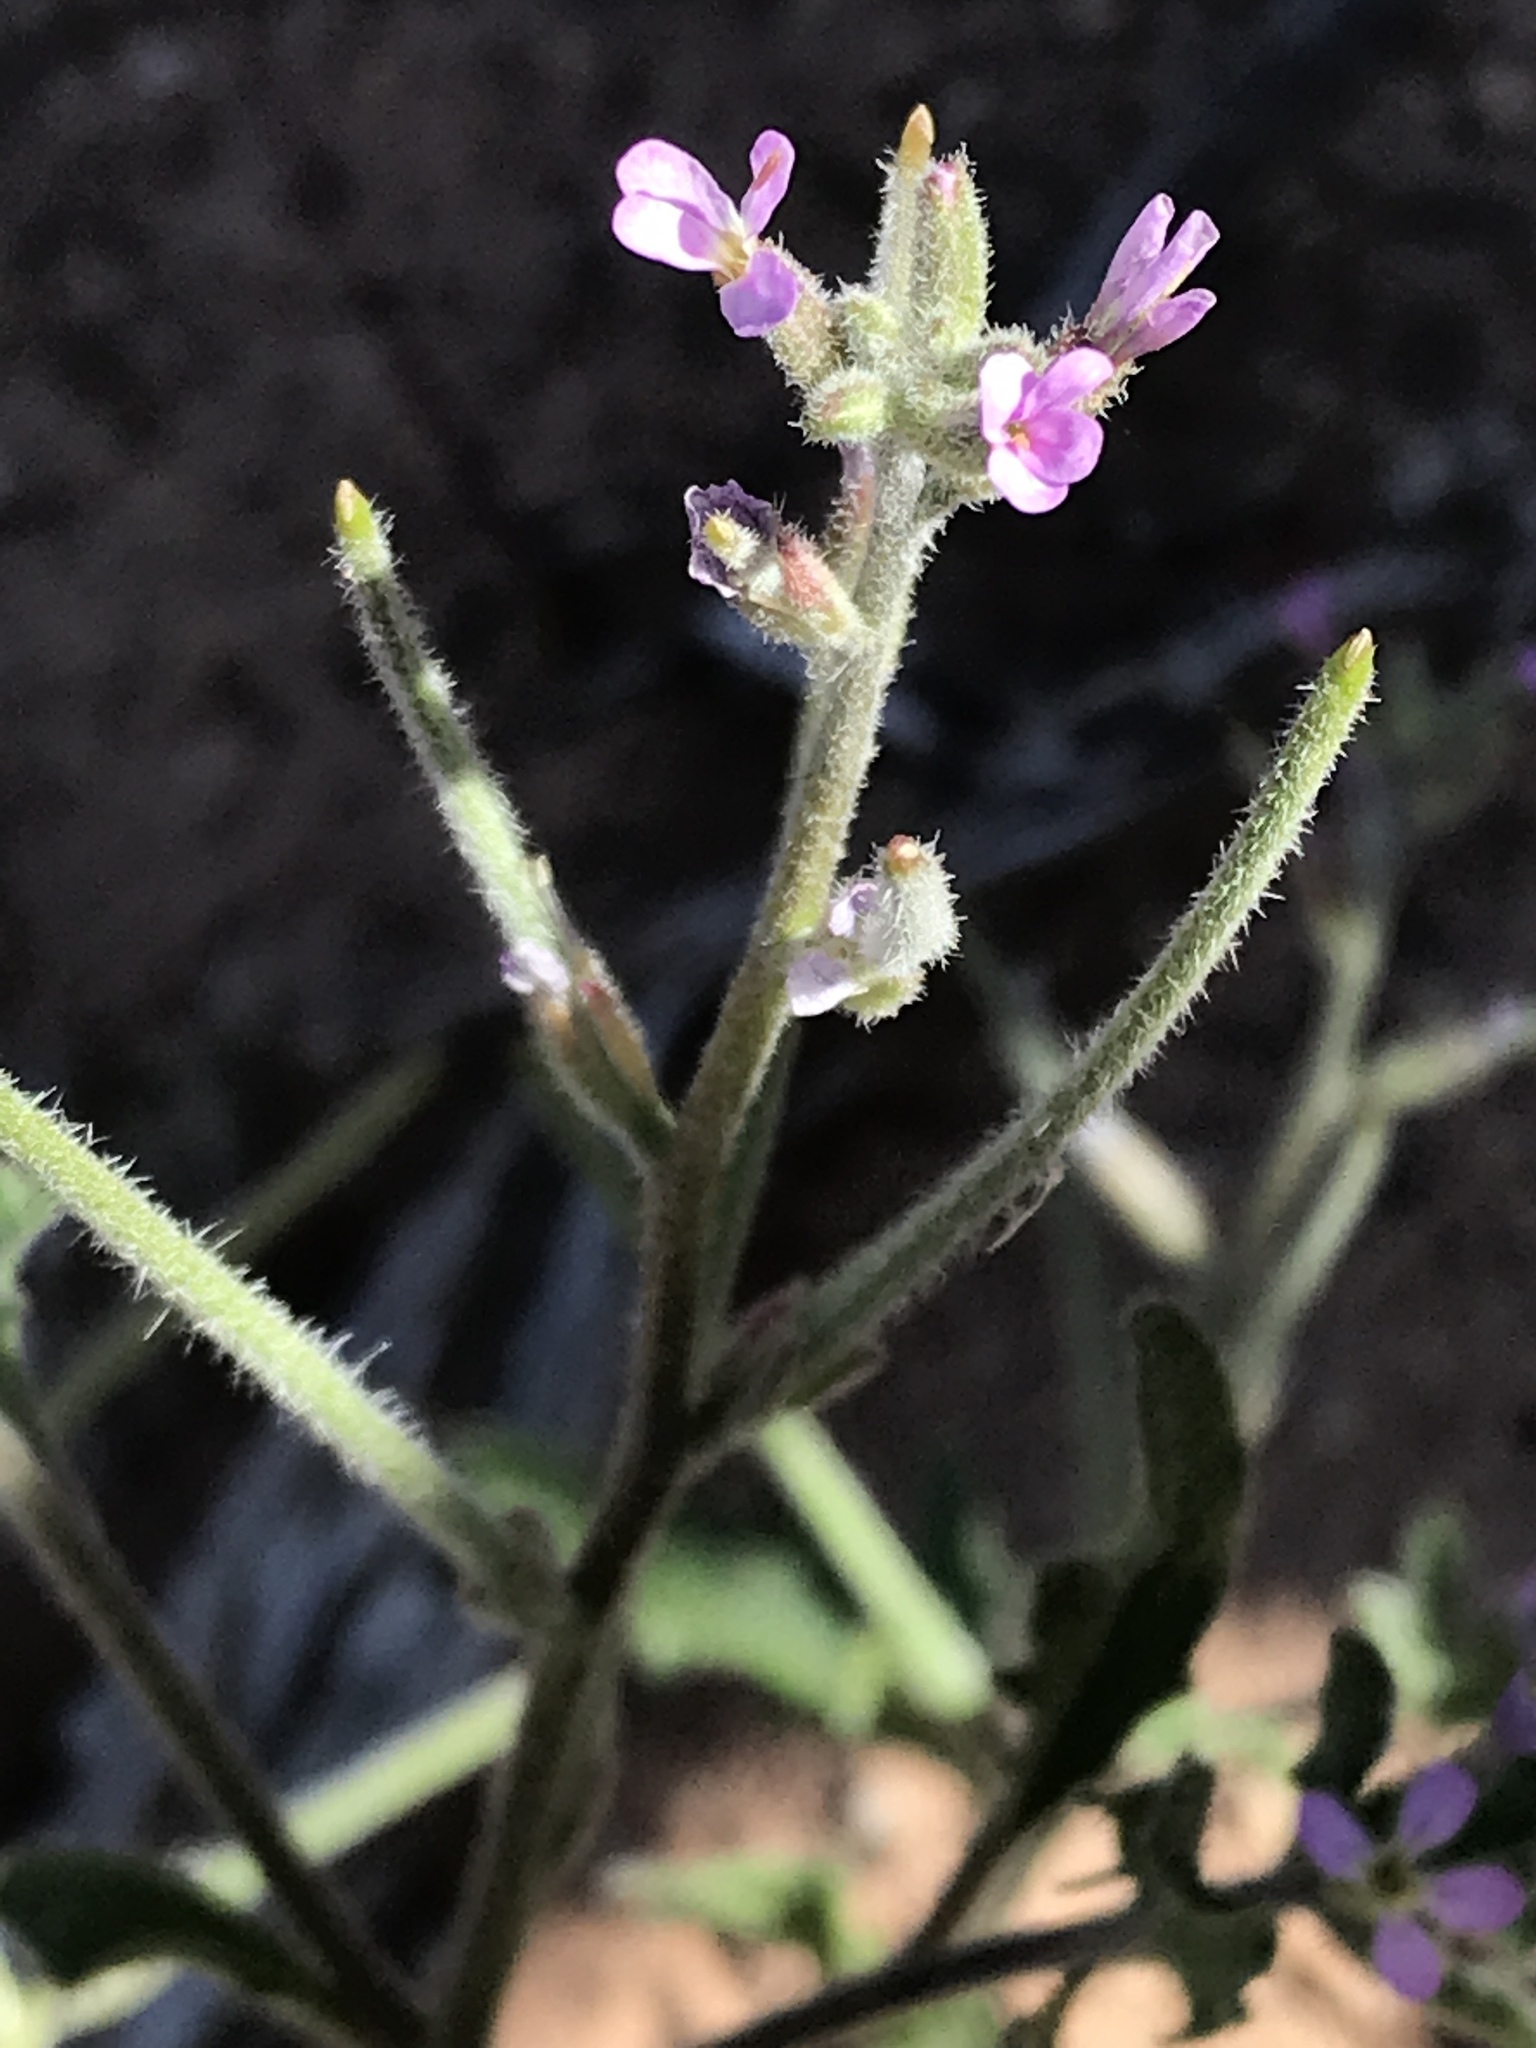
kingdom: Plantae
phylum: Tracheophyta
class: Magnoliopsida
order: Brassicales
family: Brassicaceae
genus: Strigosella
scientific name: Strigosella africana
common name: African mustard
